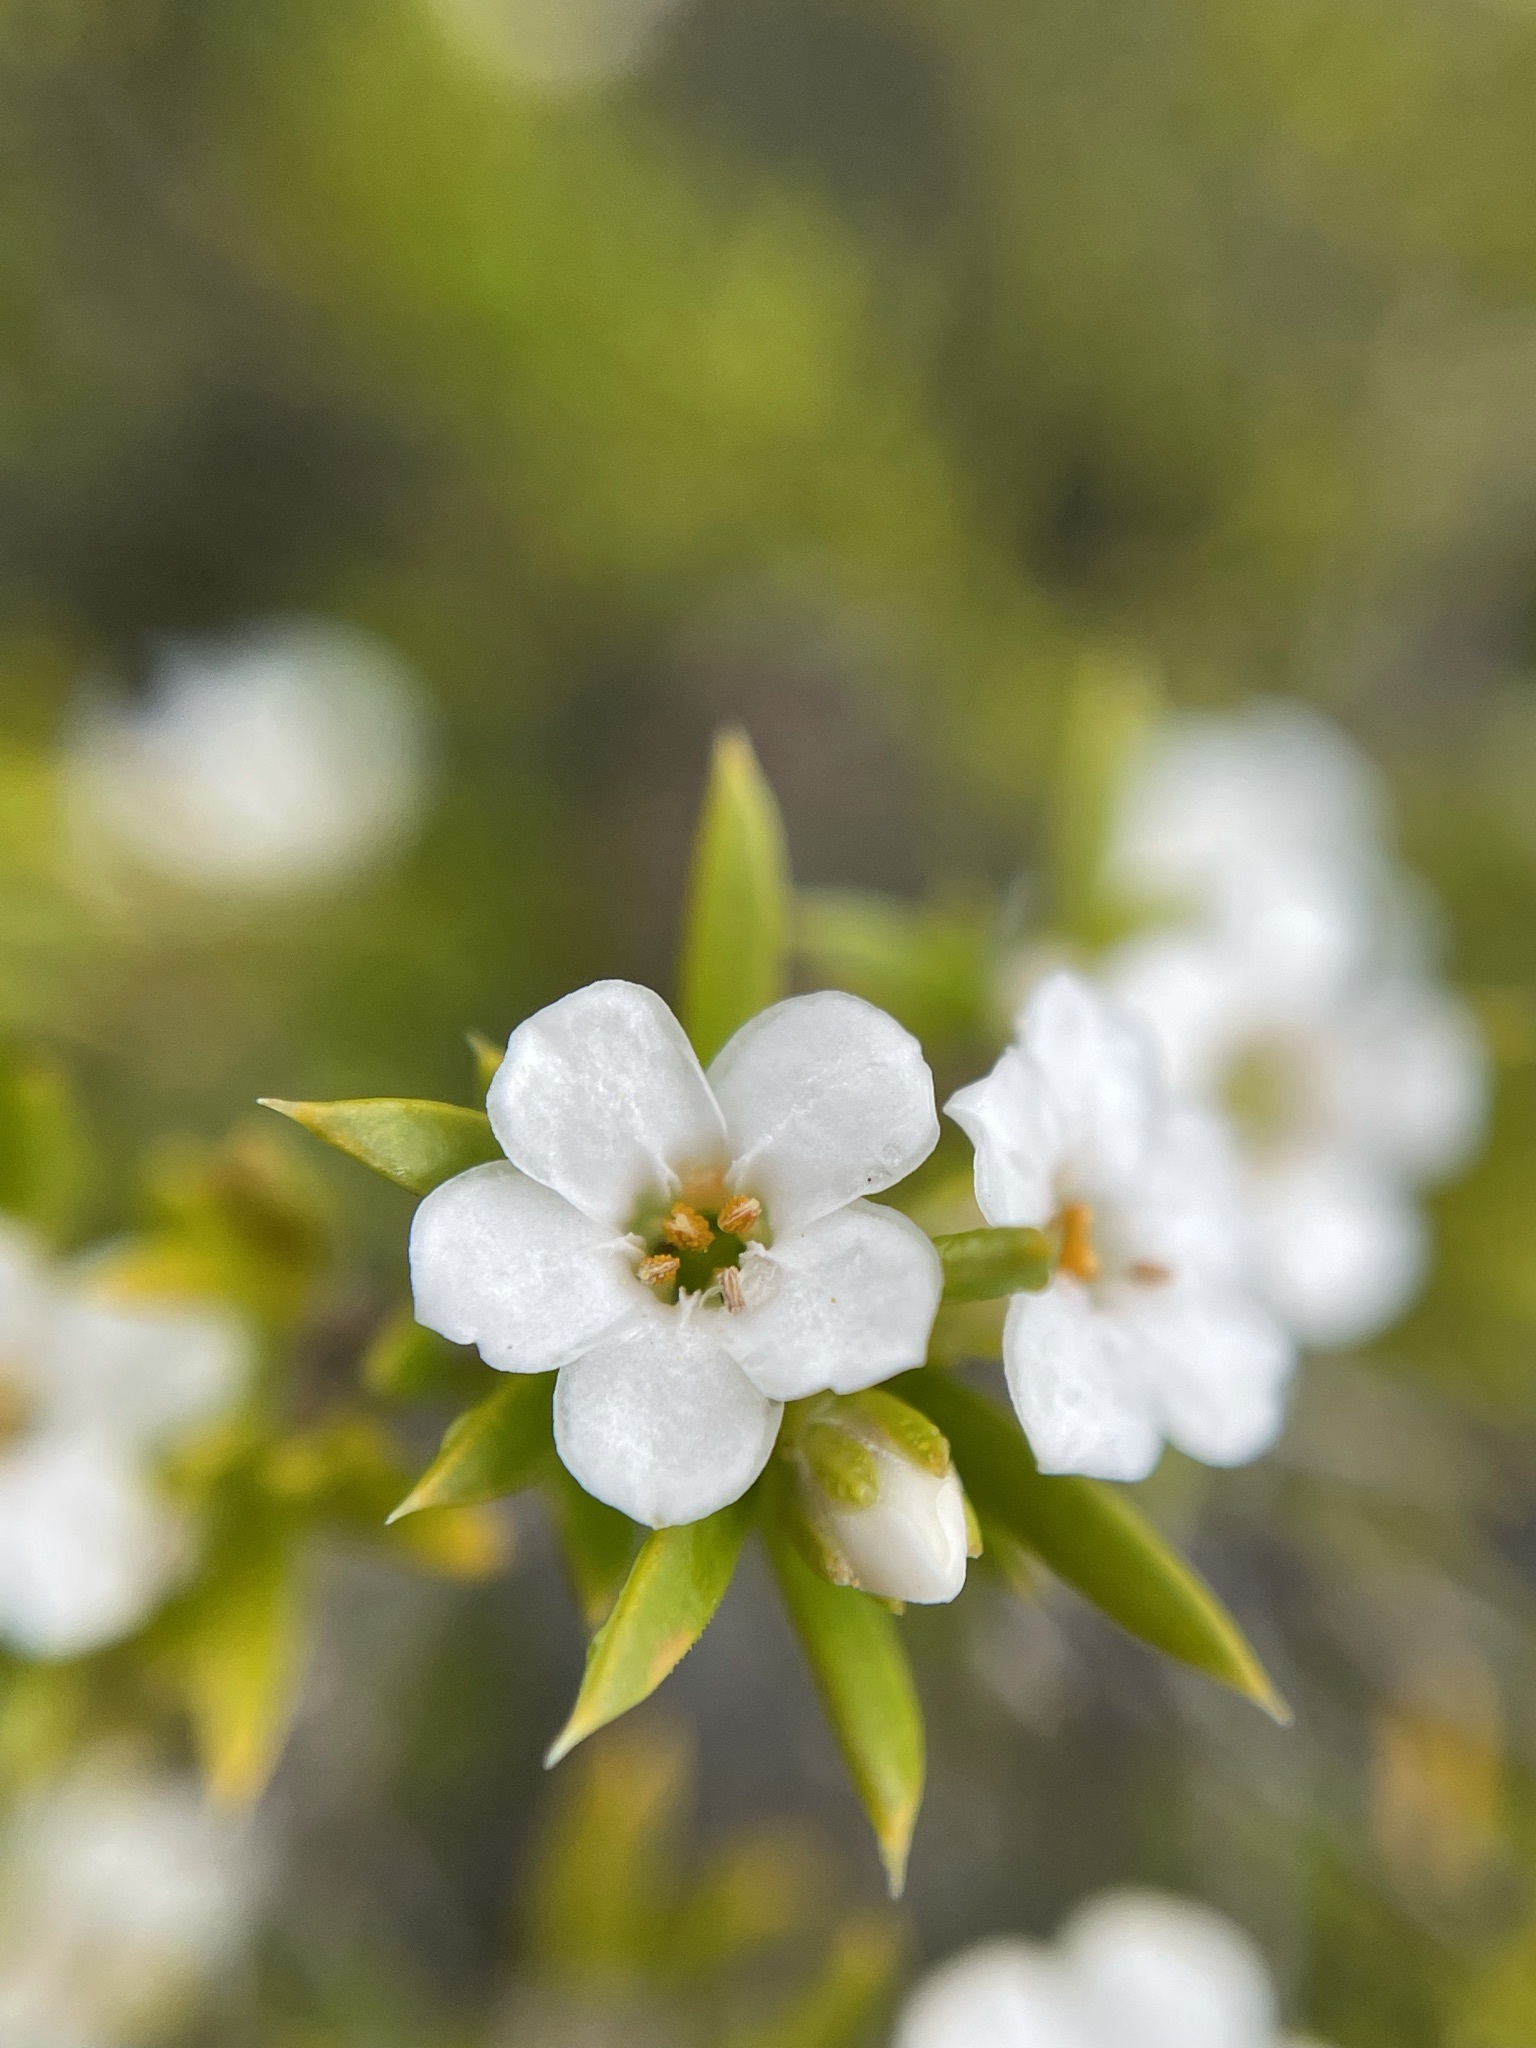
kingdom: Plantae
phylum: Tracheophyta
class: Magnoliopsida
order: Sapindales
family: Rutaceae
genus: Coleonema
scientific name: Coleonema album
